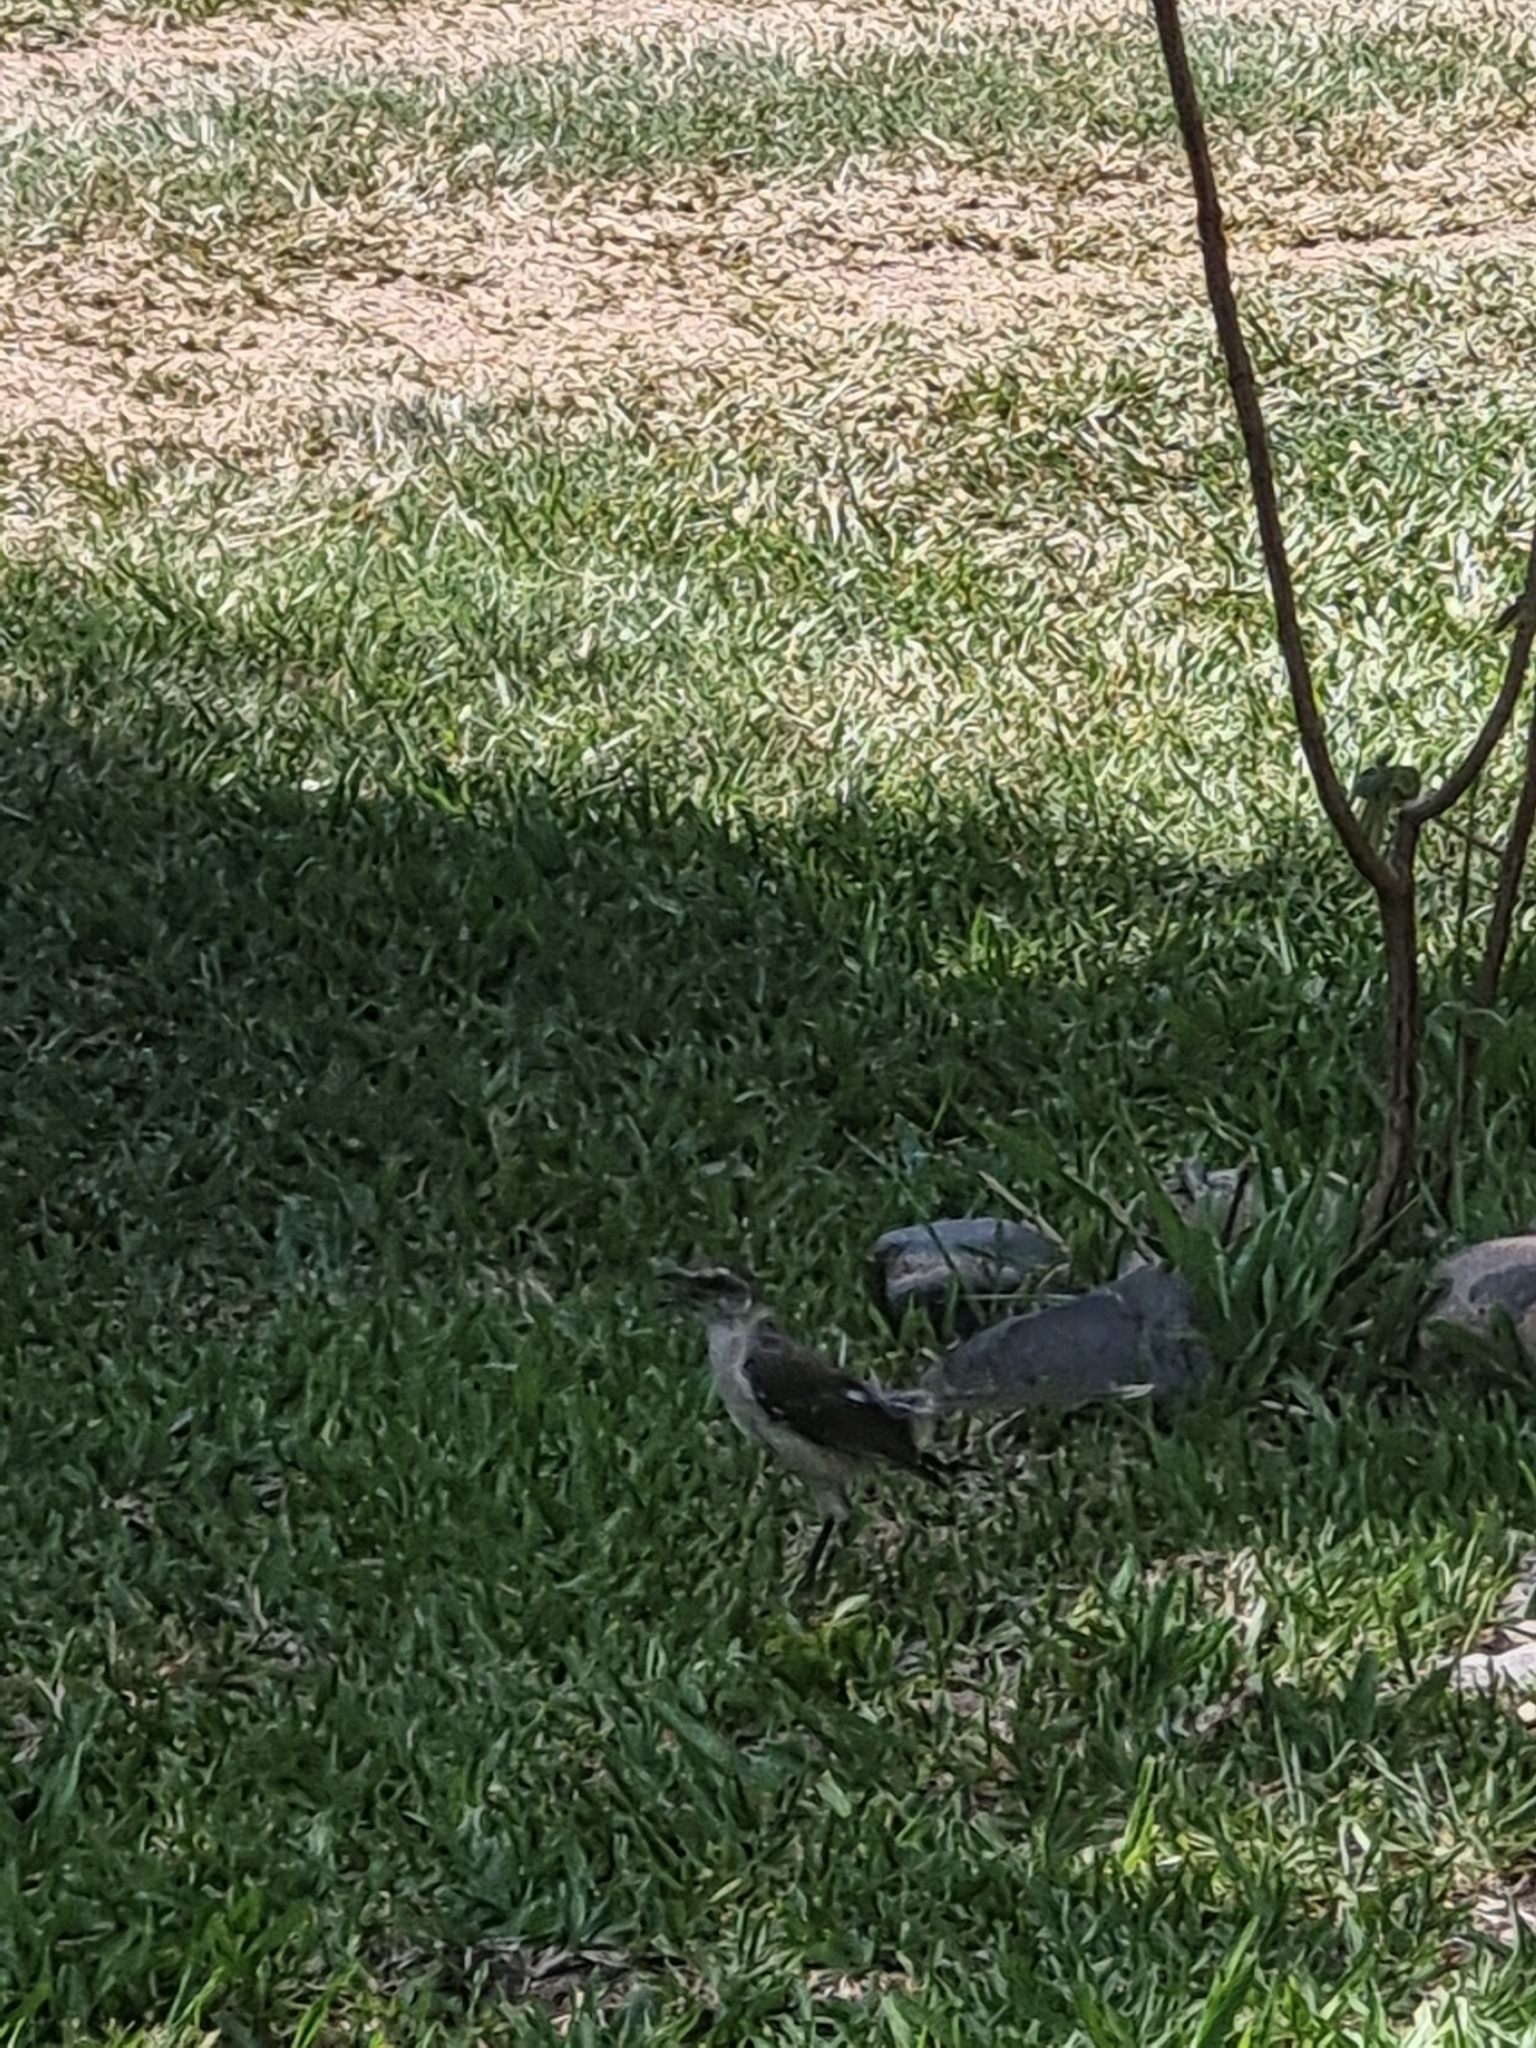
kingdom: Animalia
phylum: Chordata
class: Aves
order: Passeriformes
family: Mimidae
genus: Mimus
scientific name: Mimus saturninus
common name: Chalk-browed mockingbird
